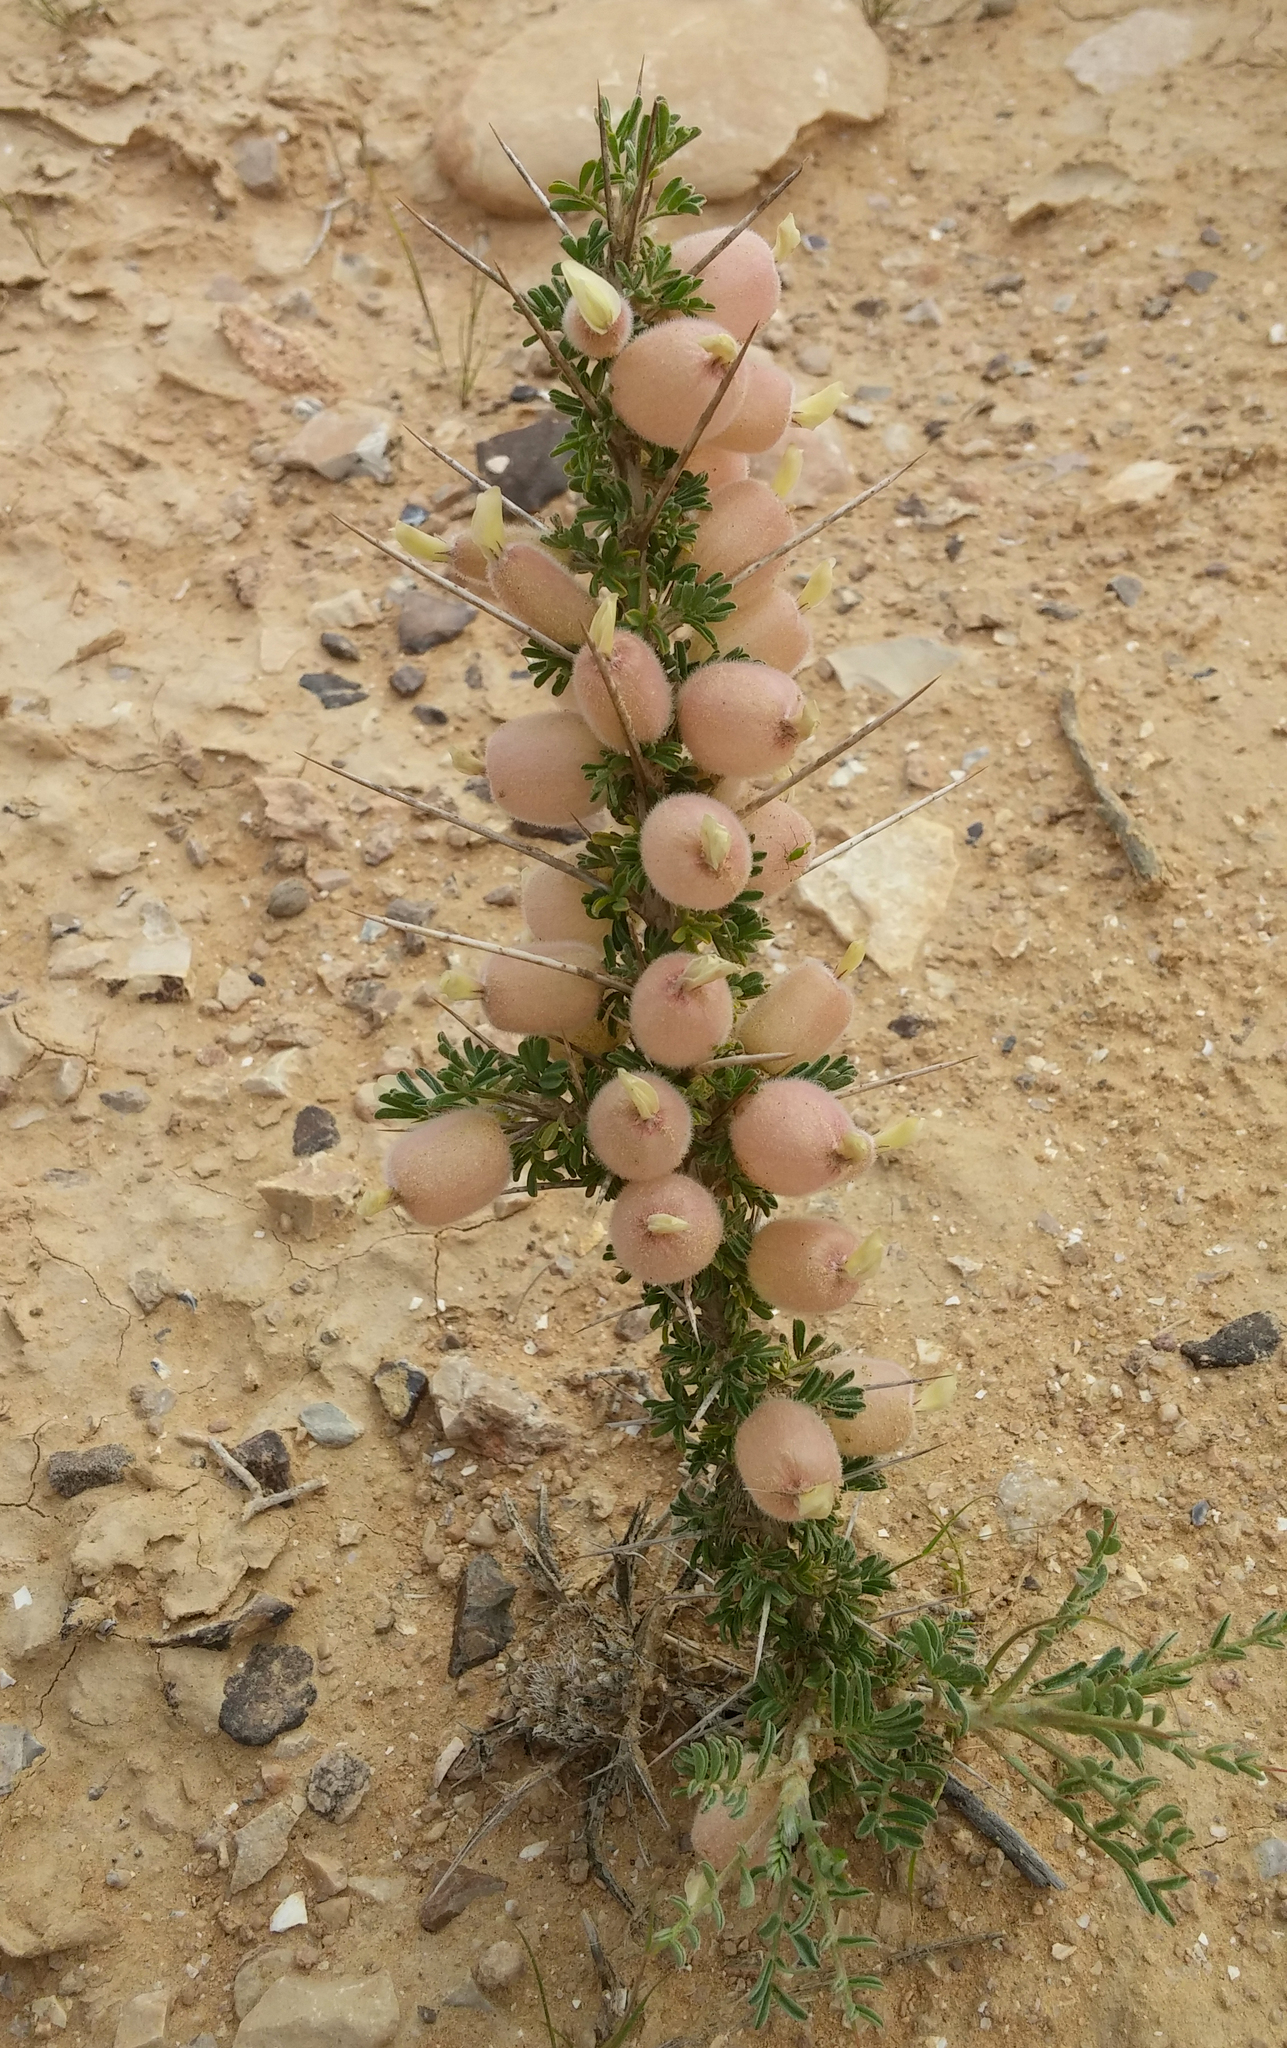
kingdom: Plantae
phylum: Tracheophyta
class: Magnoliopsida
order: Fabales
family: Fabaceae
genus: Astragalus
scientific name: Astragalus spinosus
